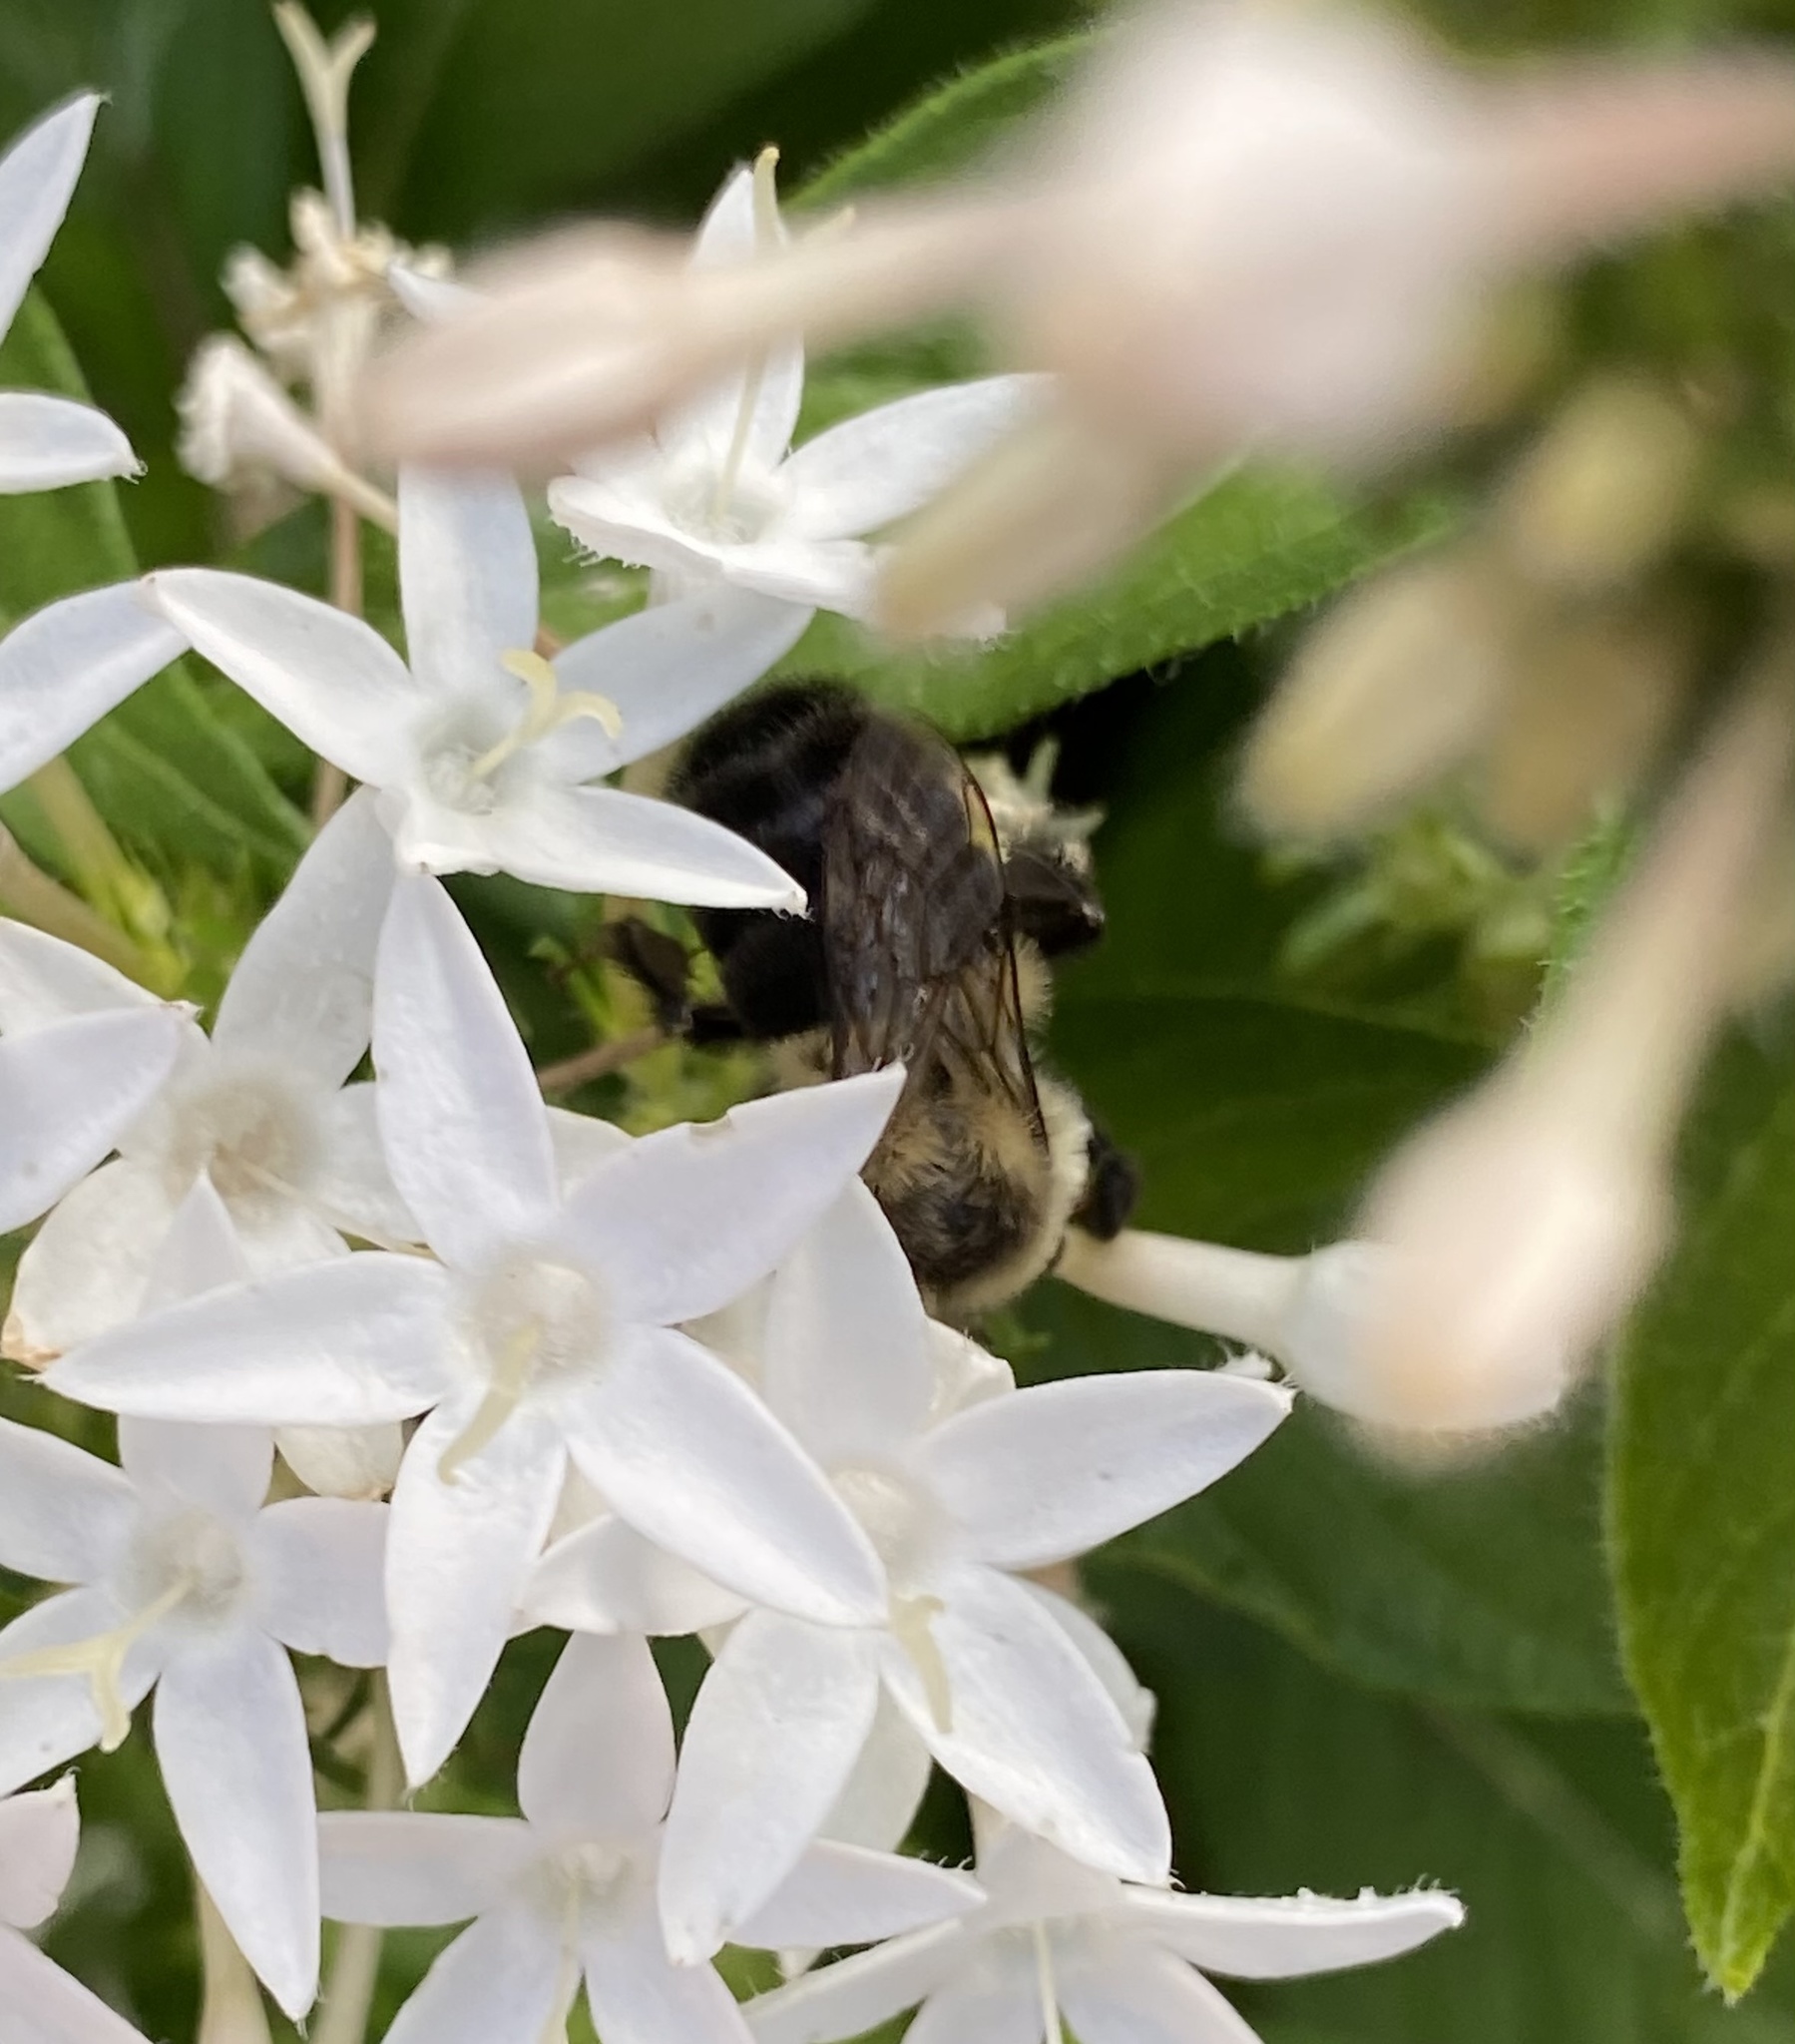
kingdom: Animalia
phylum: Arthropoda
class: Insecta
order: Hymenoptera
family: Apidae
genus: Bombus
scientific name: Bombus impatiens
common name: Common eastern bumble bee
